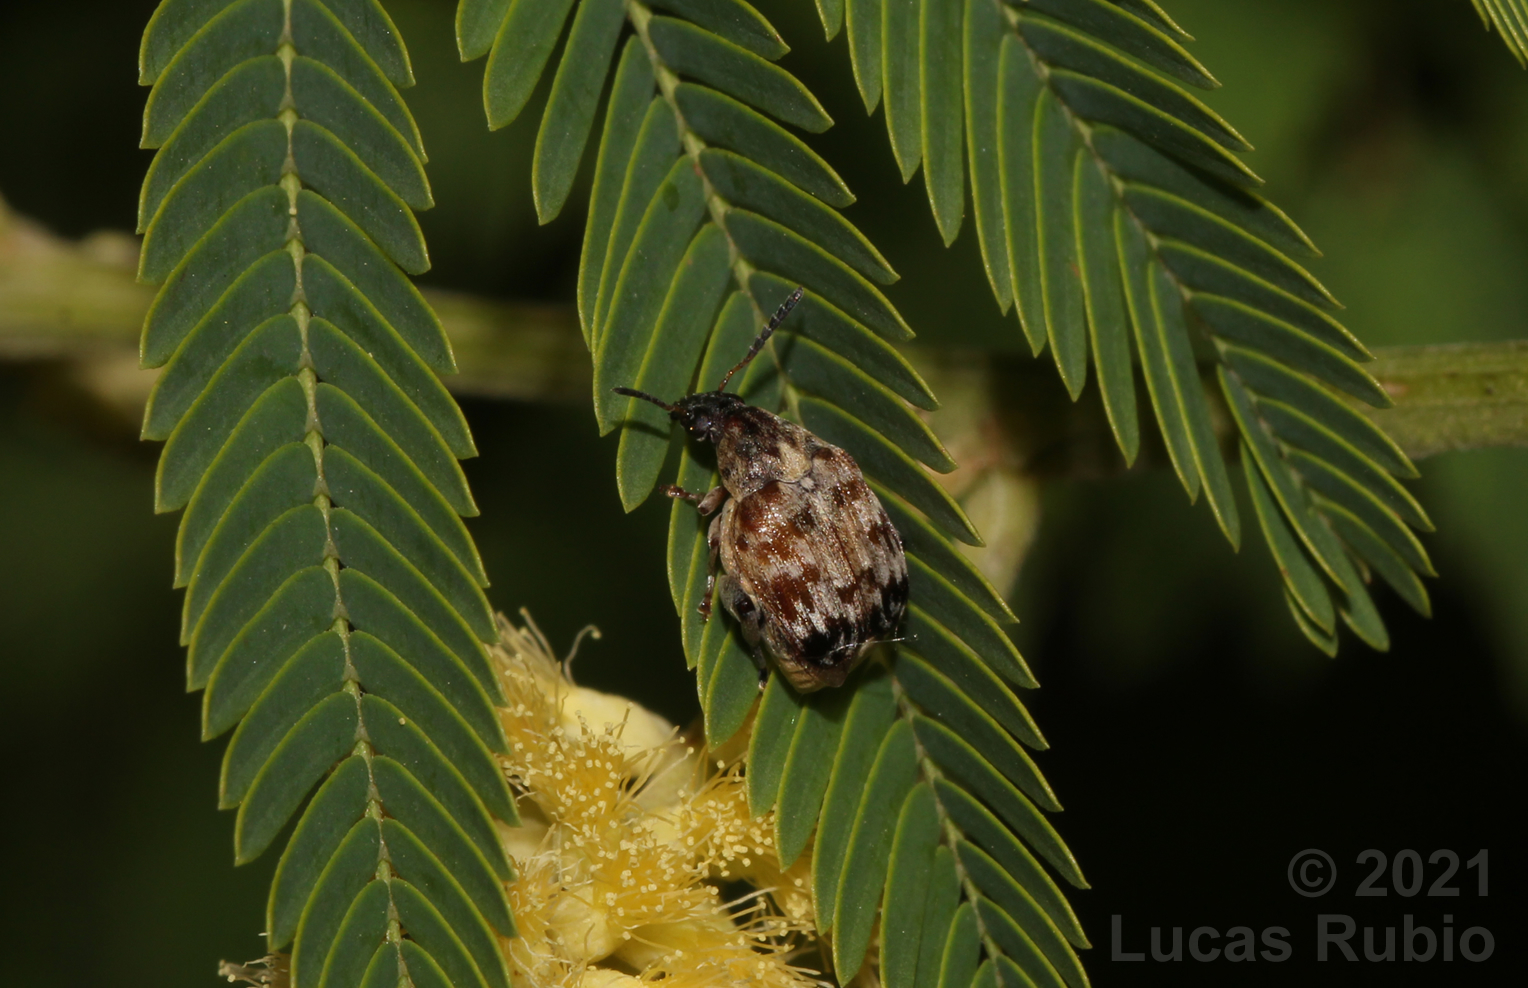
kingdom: Animalia
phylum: Arthropoda
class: Insecta
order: Coleoptera
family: Chrysomelidae
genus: Megabruchidius
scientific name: Megabruchidius tonkineus
